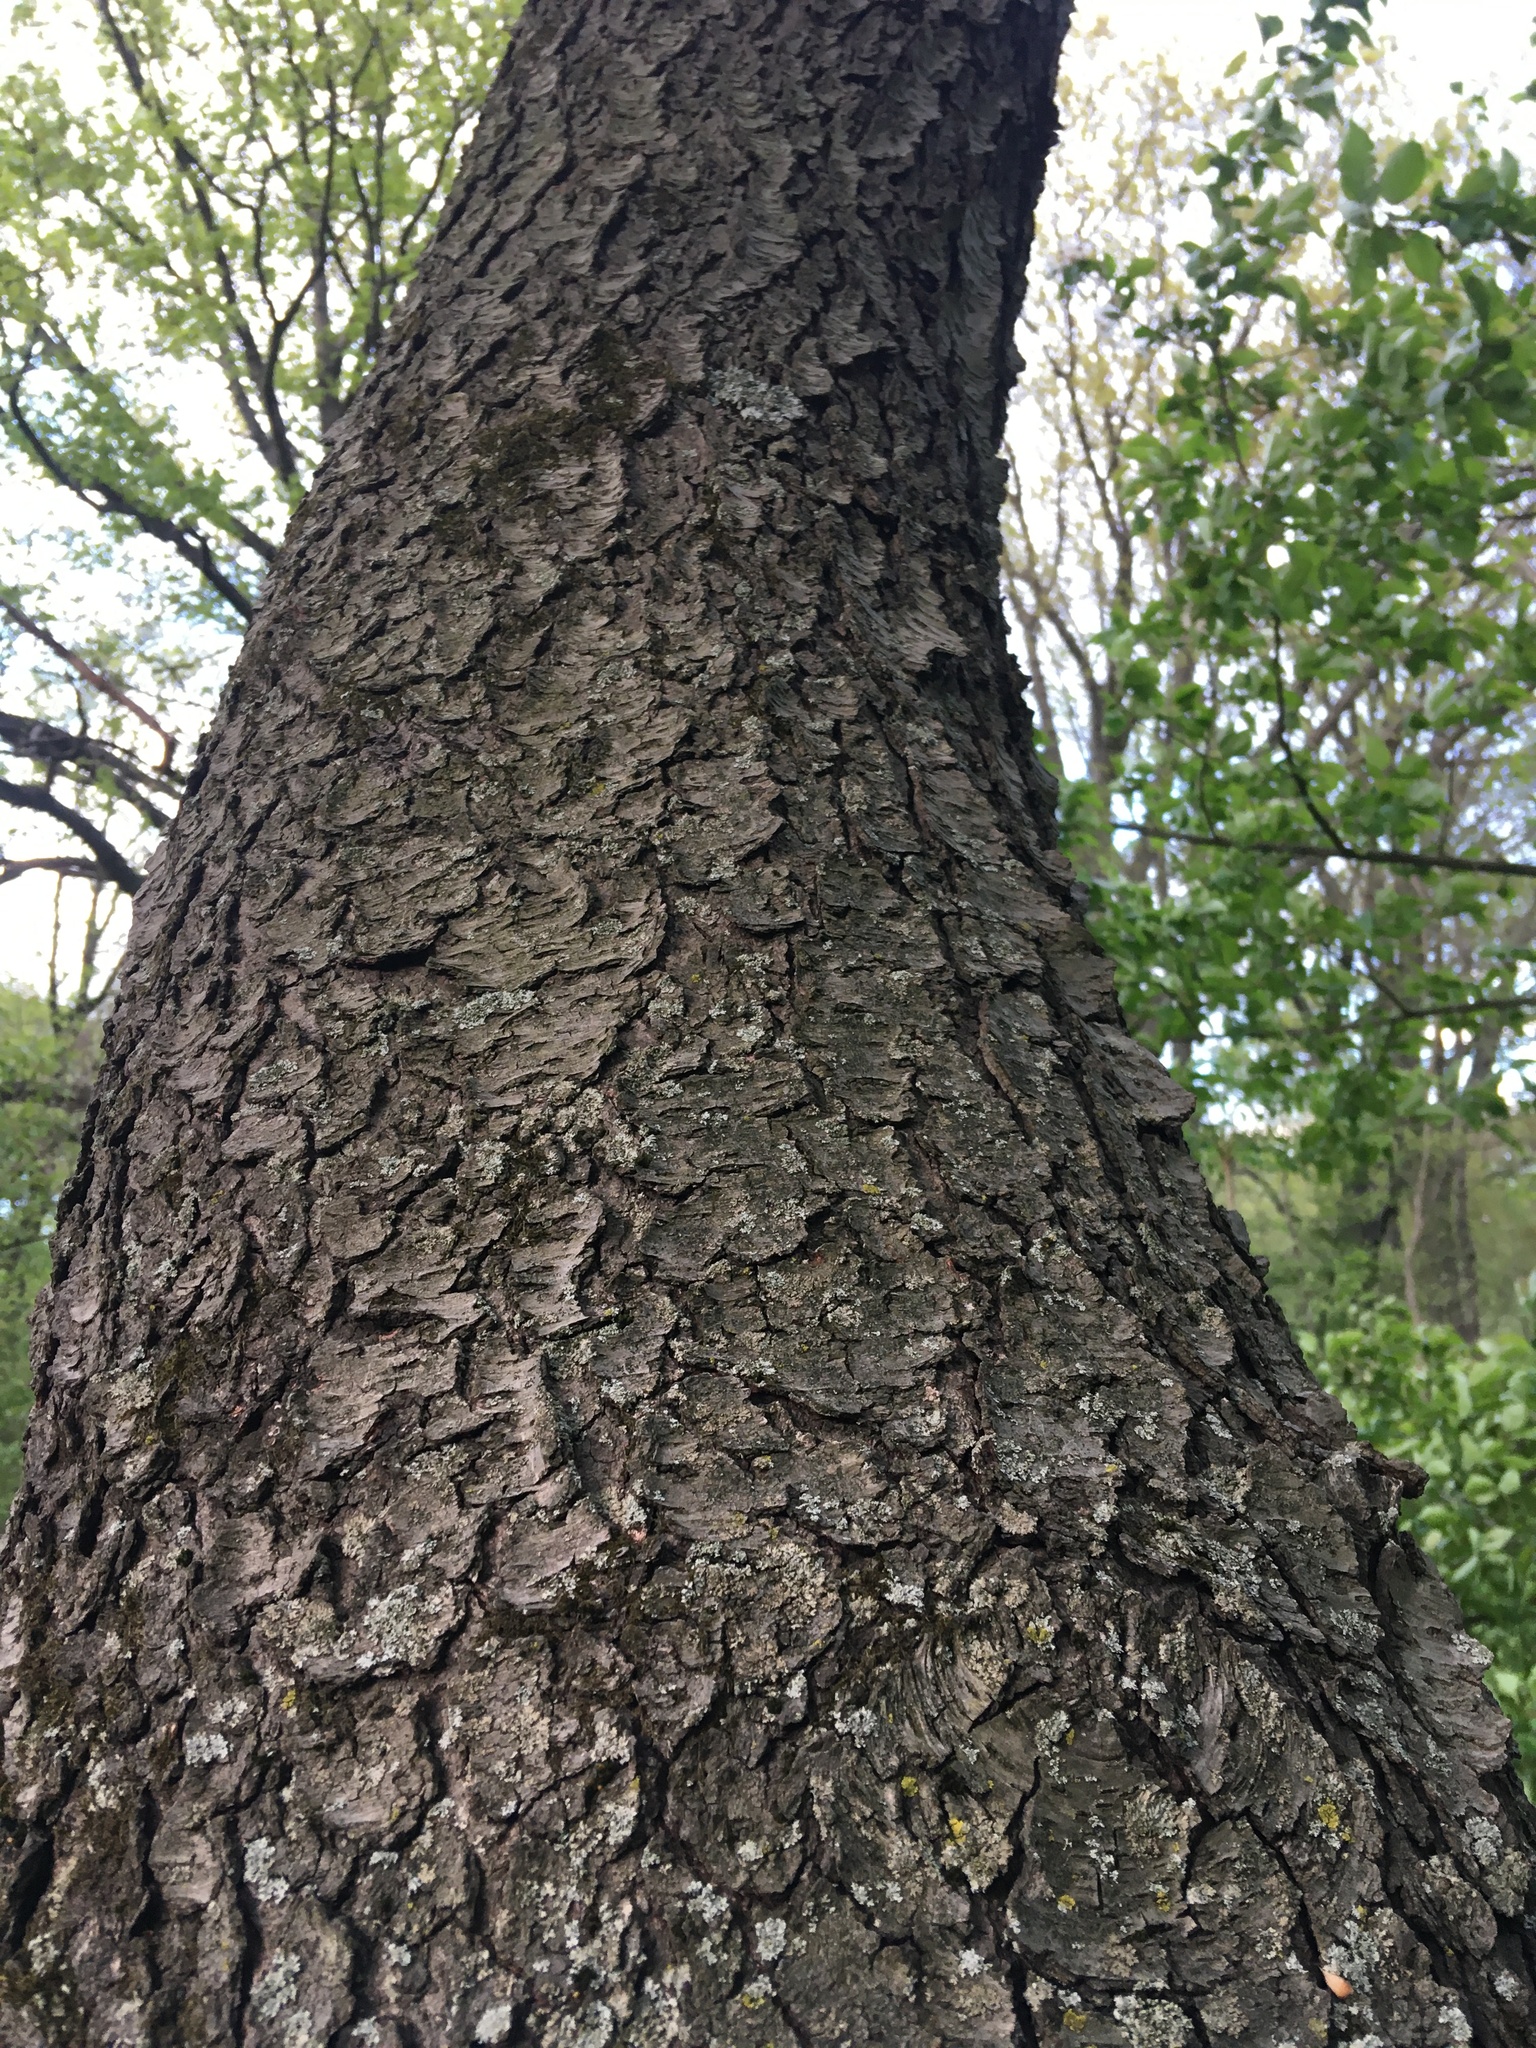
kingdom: Plantae
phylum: Tracheophyta
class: Magnoliopsida
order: Rosales
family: Rosaceae
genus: Prunus
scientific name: Prunus serotina
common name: Black cherry
